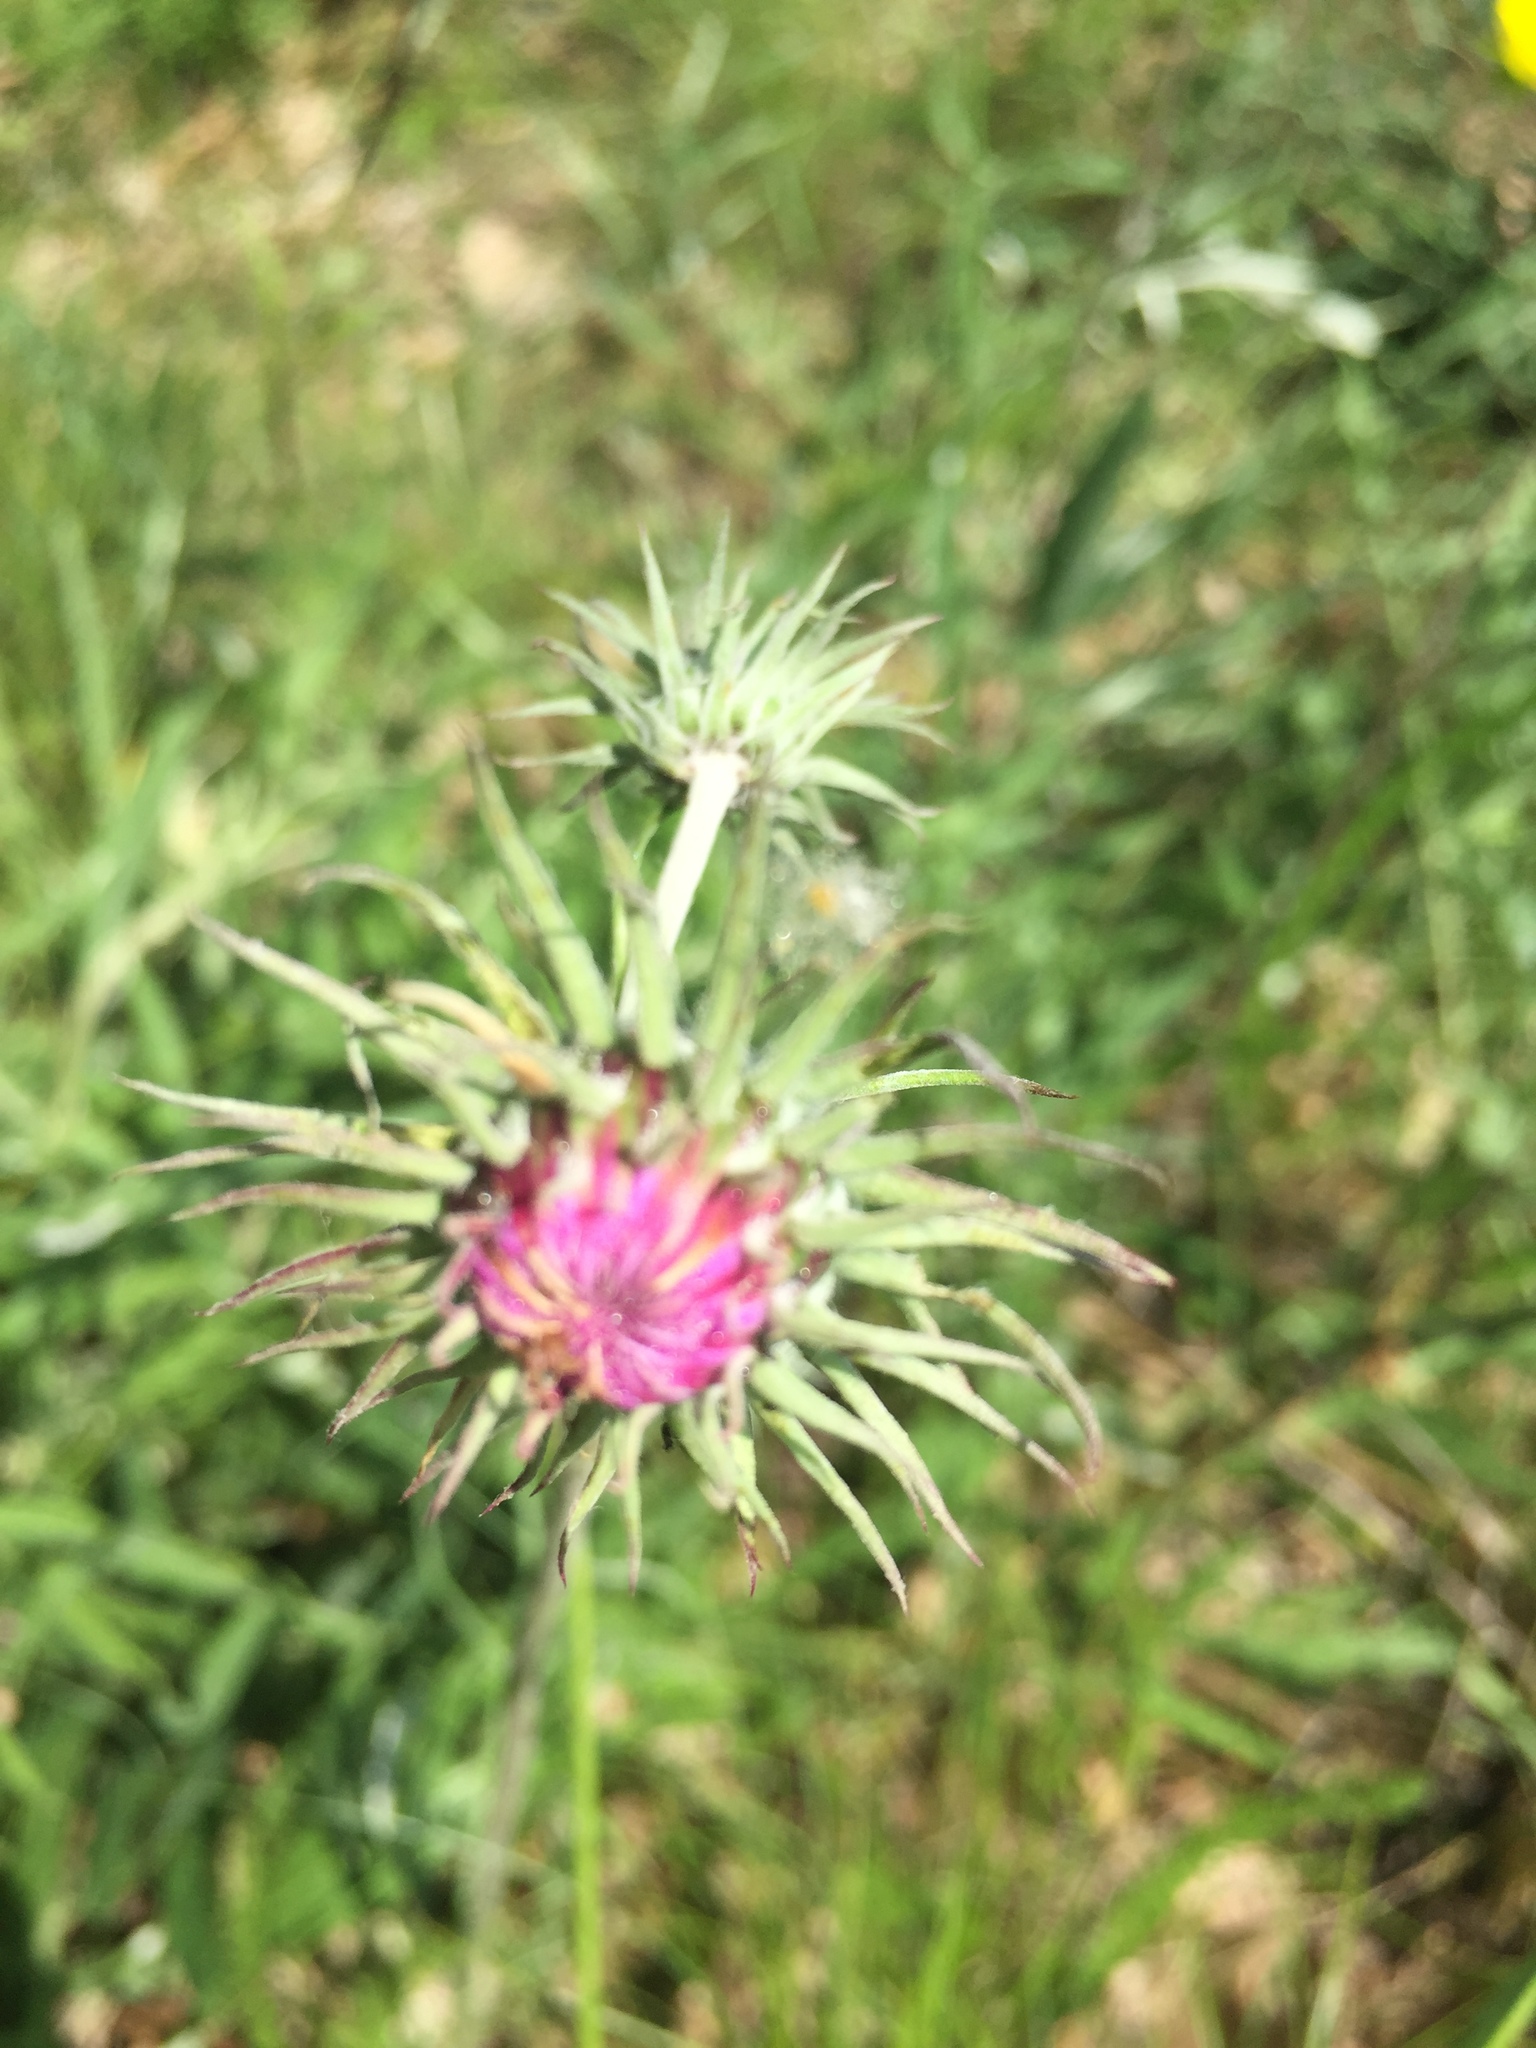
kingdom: Plantae
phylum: Tracheophyta
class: Magnoliopsida
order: Asterales
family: Asteraceae
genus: Jurinea
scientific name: Jurinea cyanoides
